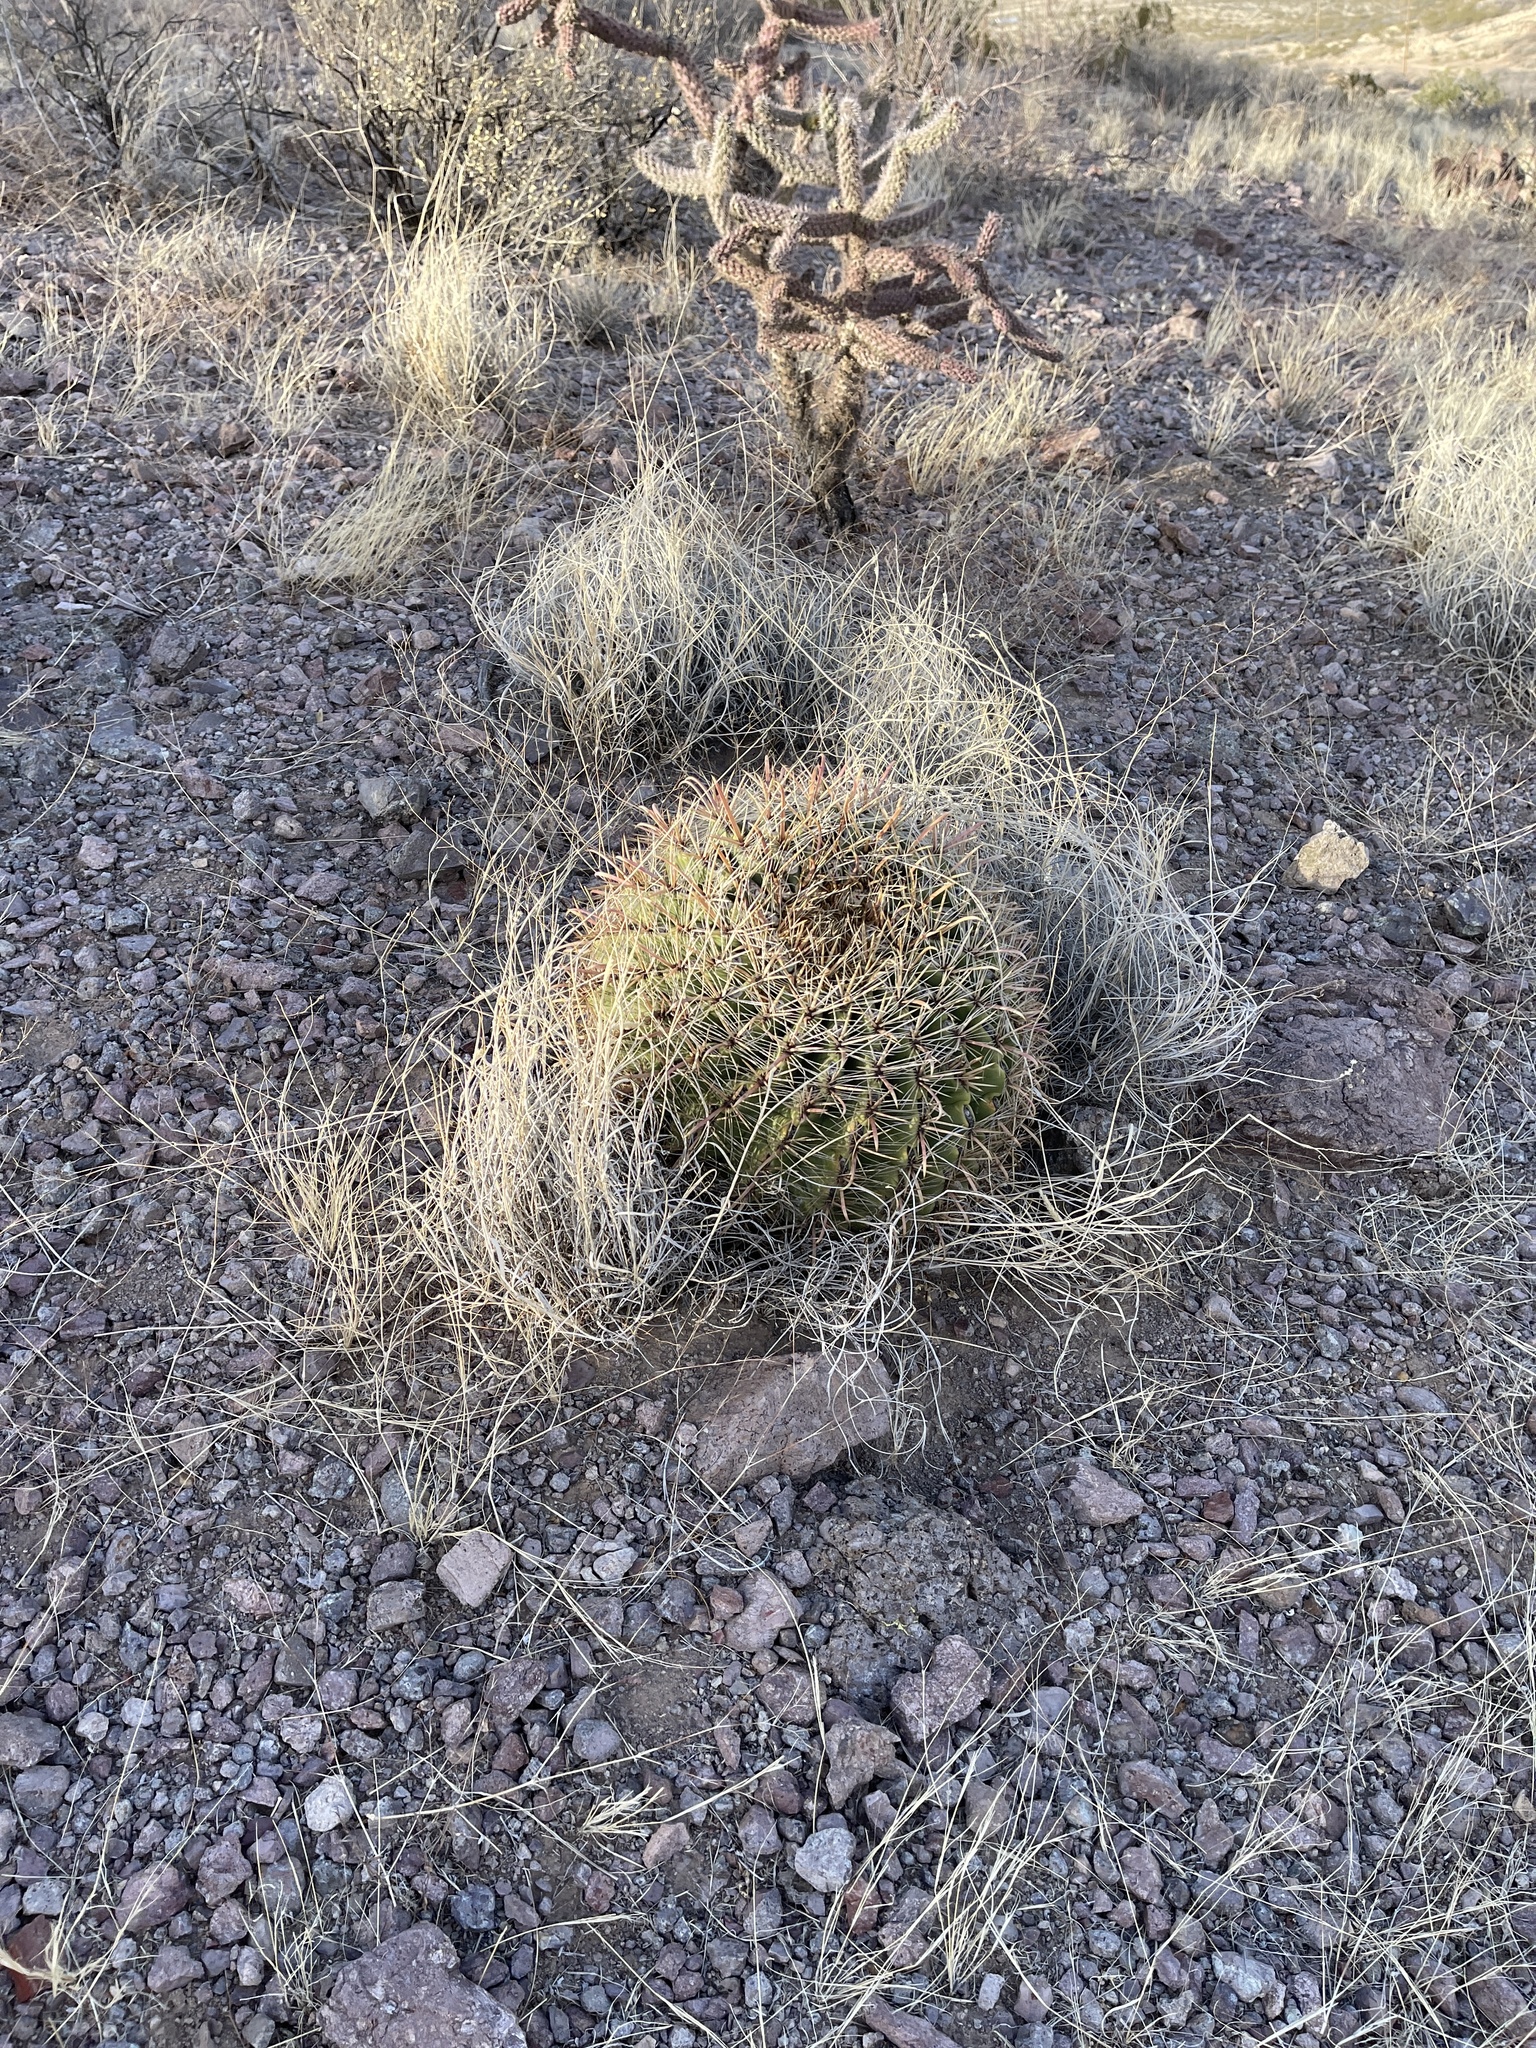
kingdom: Plantae
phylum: Tracheophyta
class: Magnoliopsida
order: Caryophyllales
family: Cactaceae
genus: Ferocactus
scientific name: Ferocactus wislizeni
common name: Candy barrel cactus
